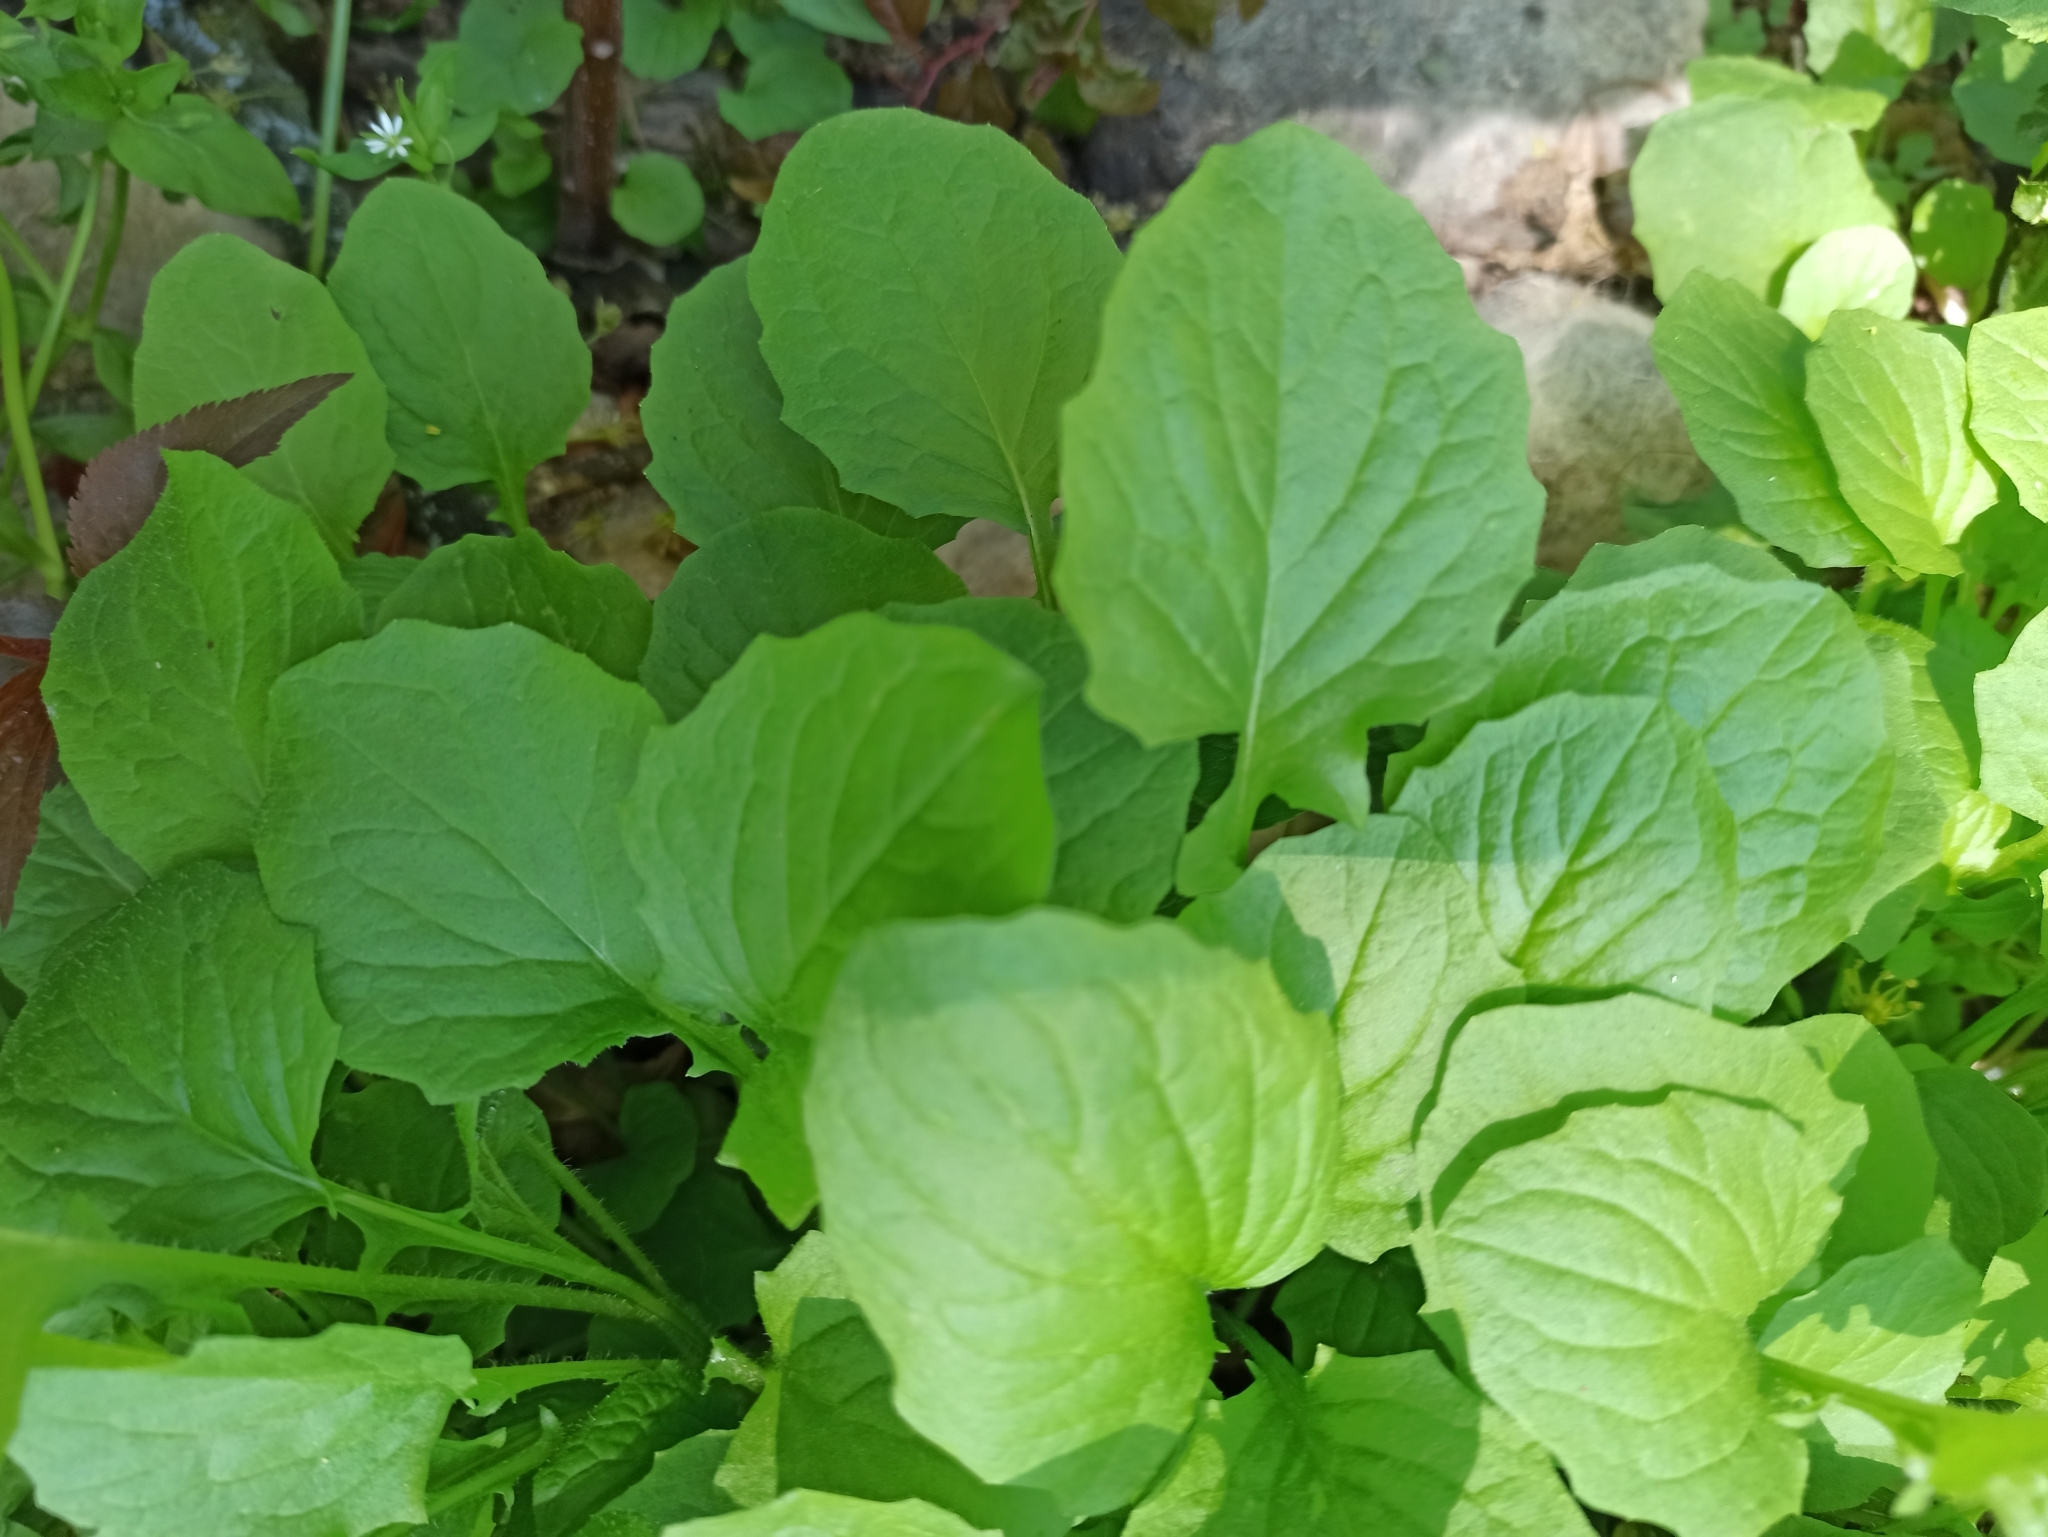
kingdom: Plantae
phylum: Tracheophyta
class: Magnoliopsida
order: Asterales
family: Asteraceae
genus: Lapsana
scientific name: Lapsana communis
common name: Nipplewort
